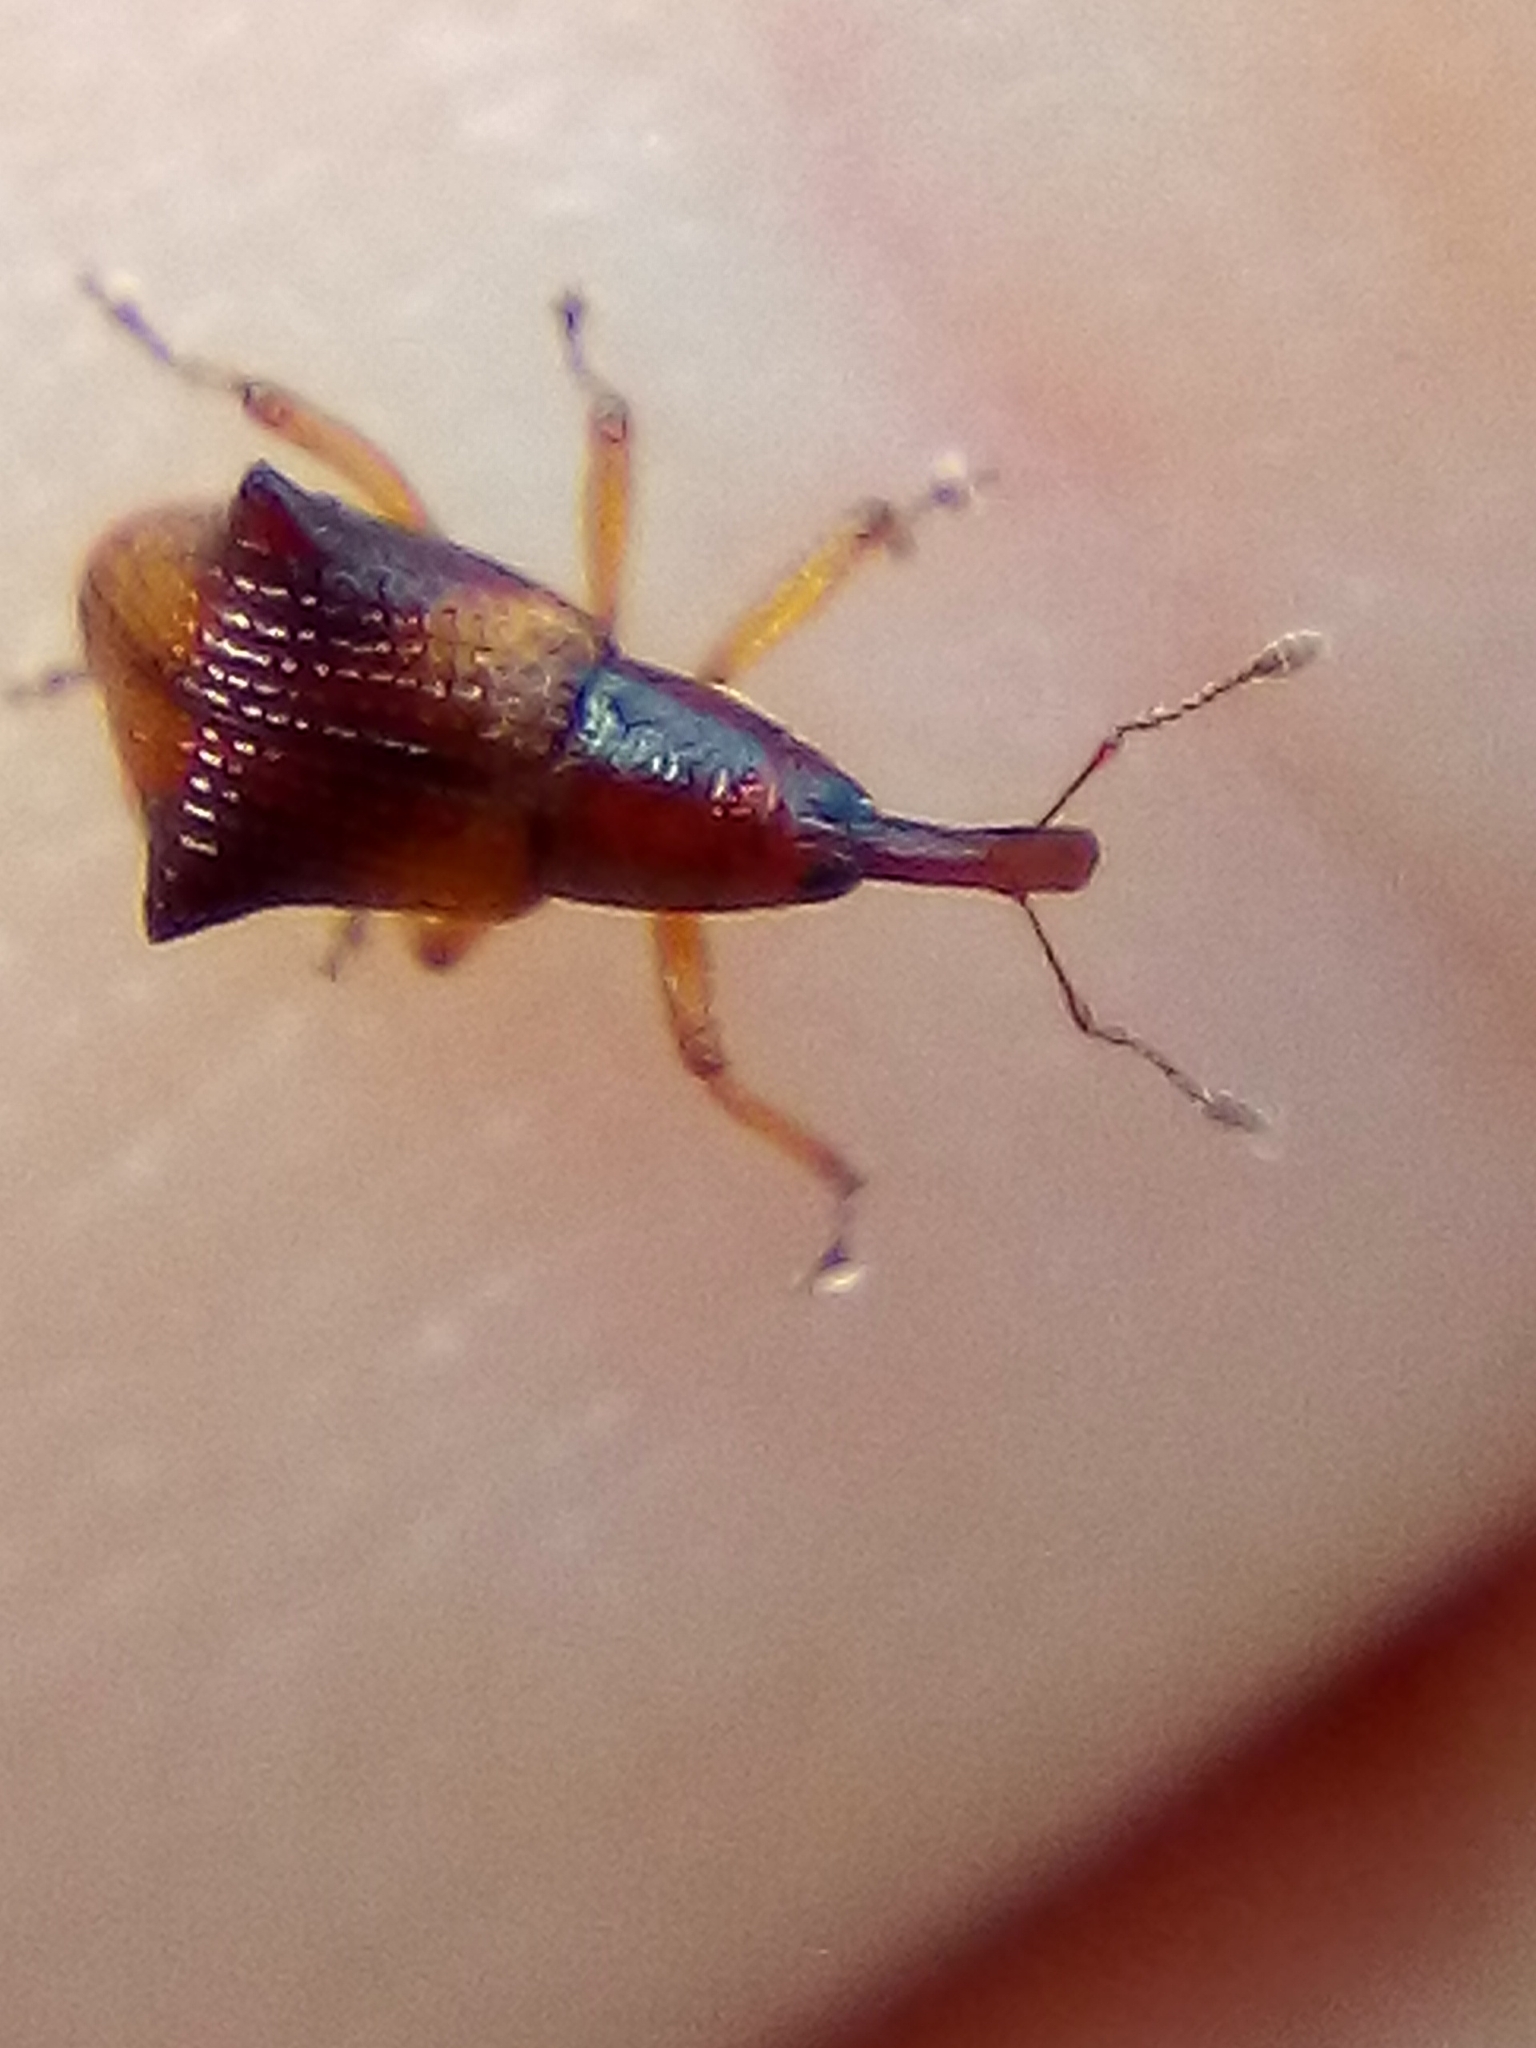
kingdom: Animalia
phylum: Arthropoda
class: Insecta
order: Coleoptera
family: Curculionidae
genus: Oropterus
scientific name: Oropterus coniger
